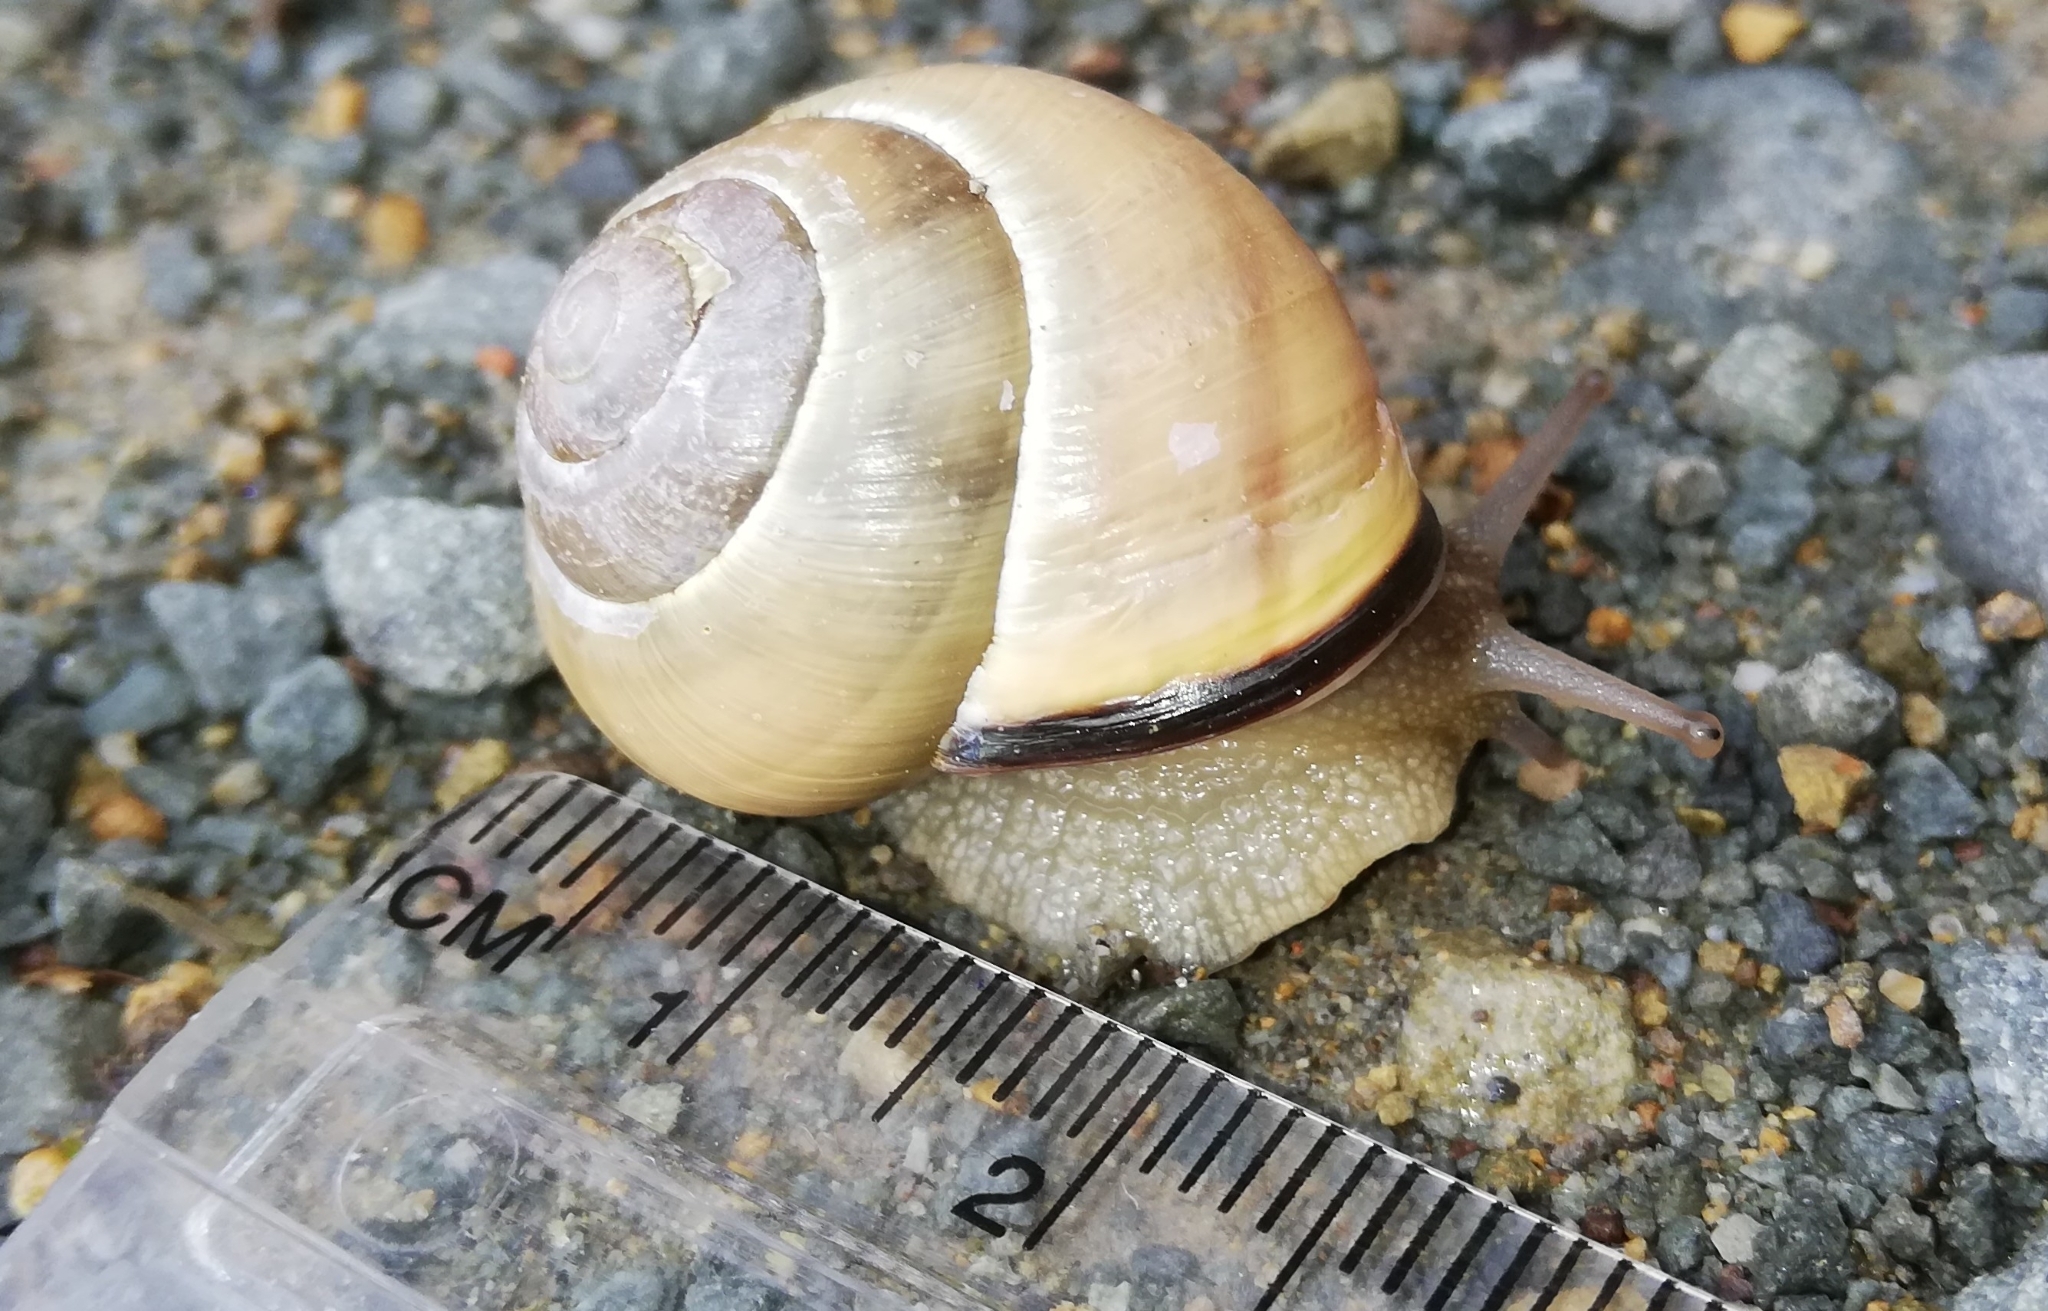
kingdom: Animalia
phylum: Mollusca
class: Gastropoda
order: Stylommatophora
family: Helicidae
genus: Cepaea
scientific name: Cepaea nemoralis
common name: Grovesnail
